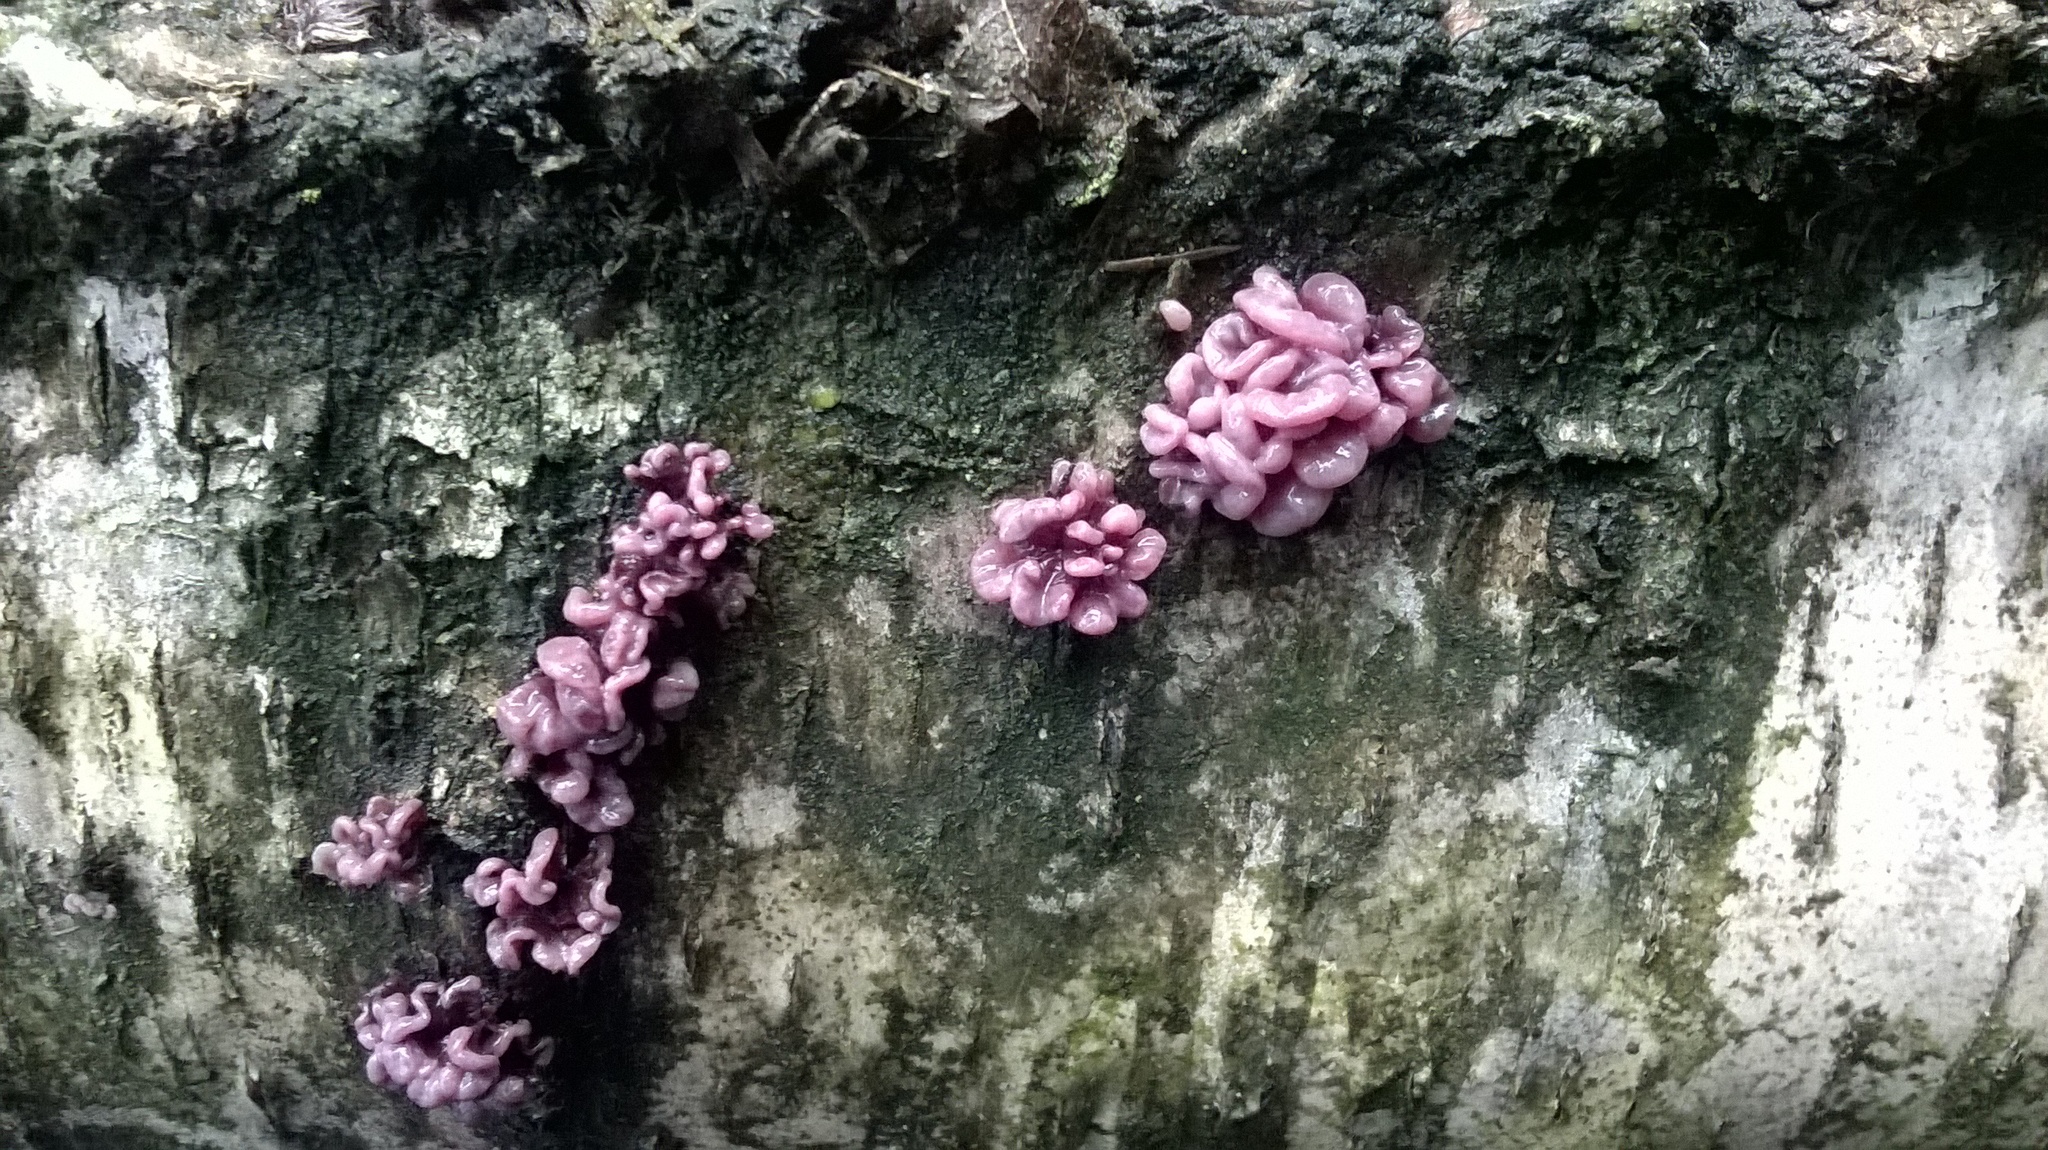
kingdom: Fungi
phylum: Ascomycota
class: Leotiomycetes
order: Helotiales
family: Gelatinodiscaceae
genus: Ascocoryne
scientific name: Ascocoryne sarcoides
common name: Purple jellydisc
